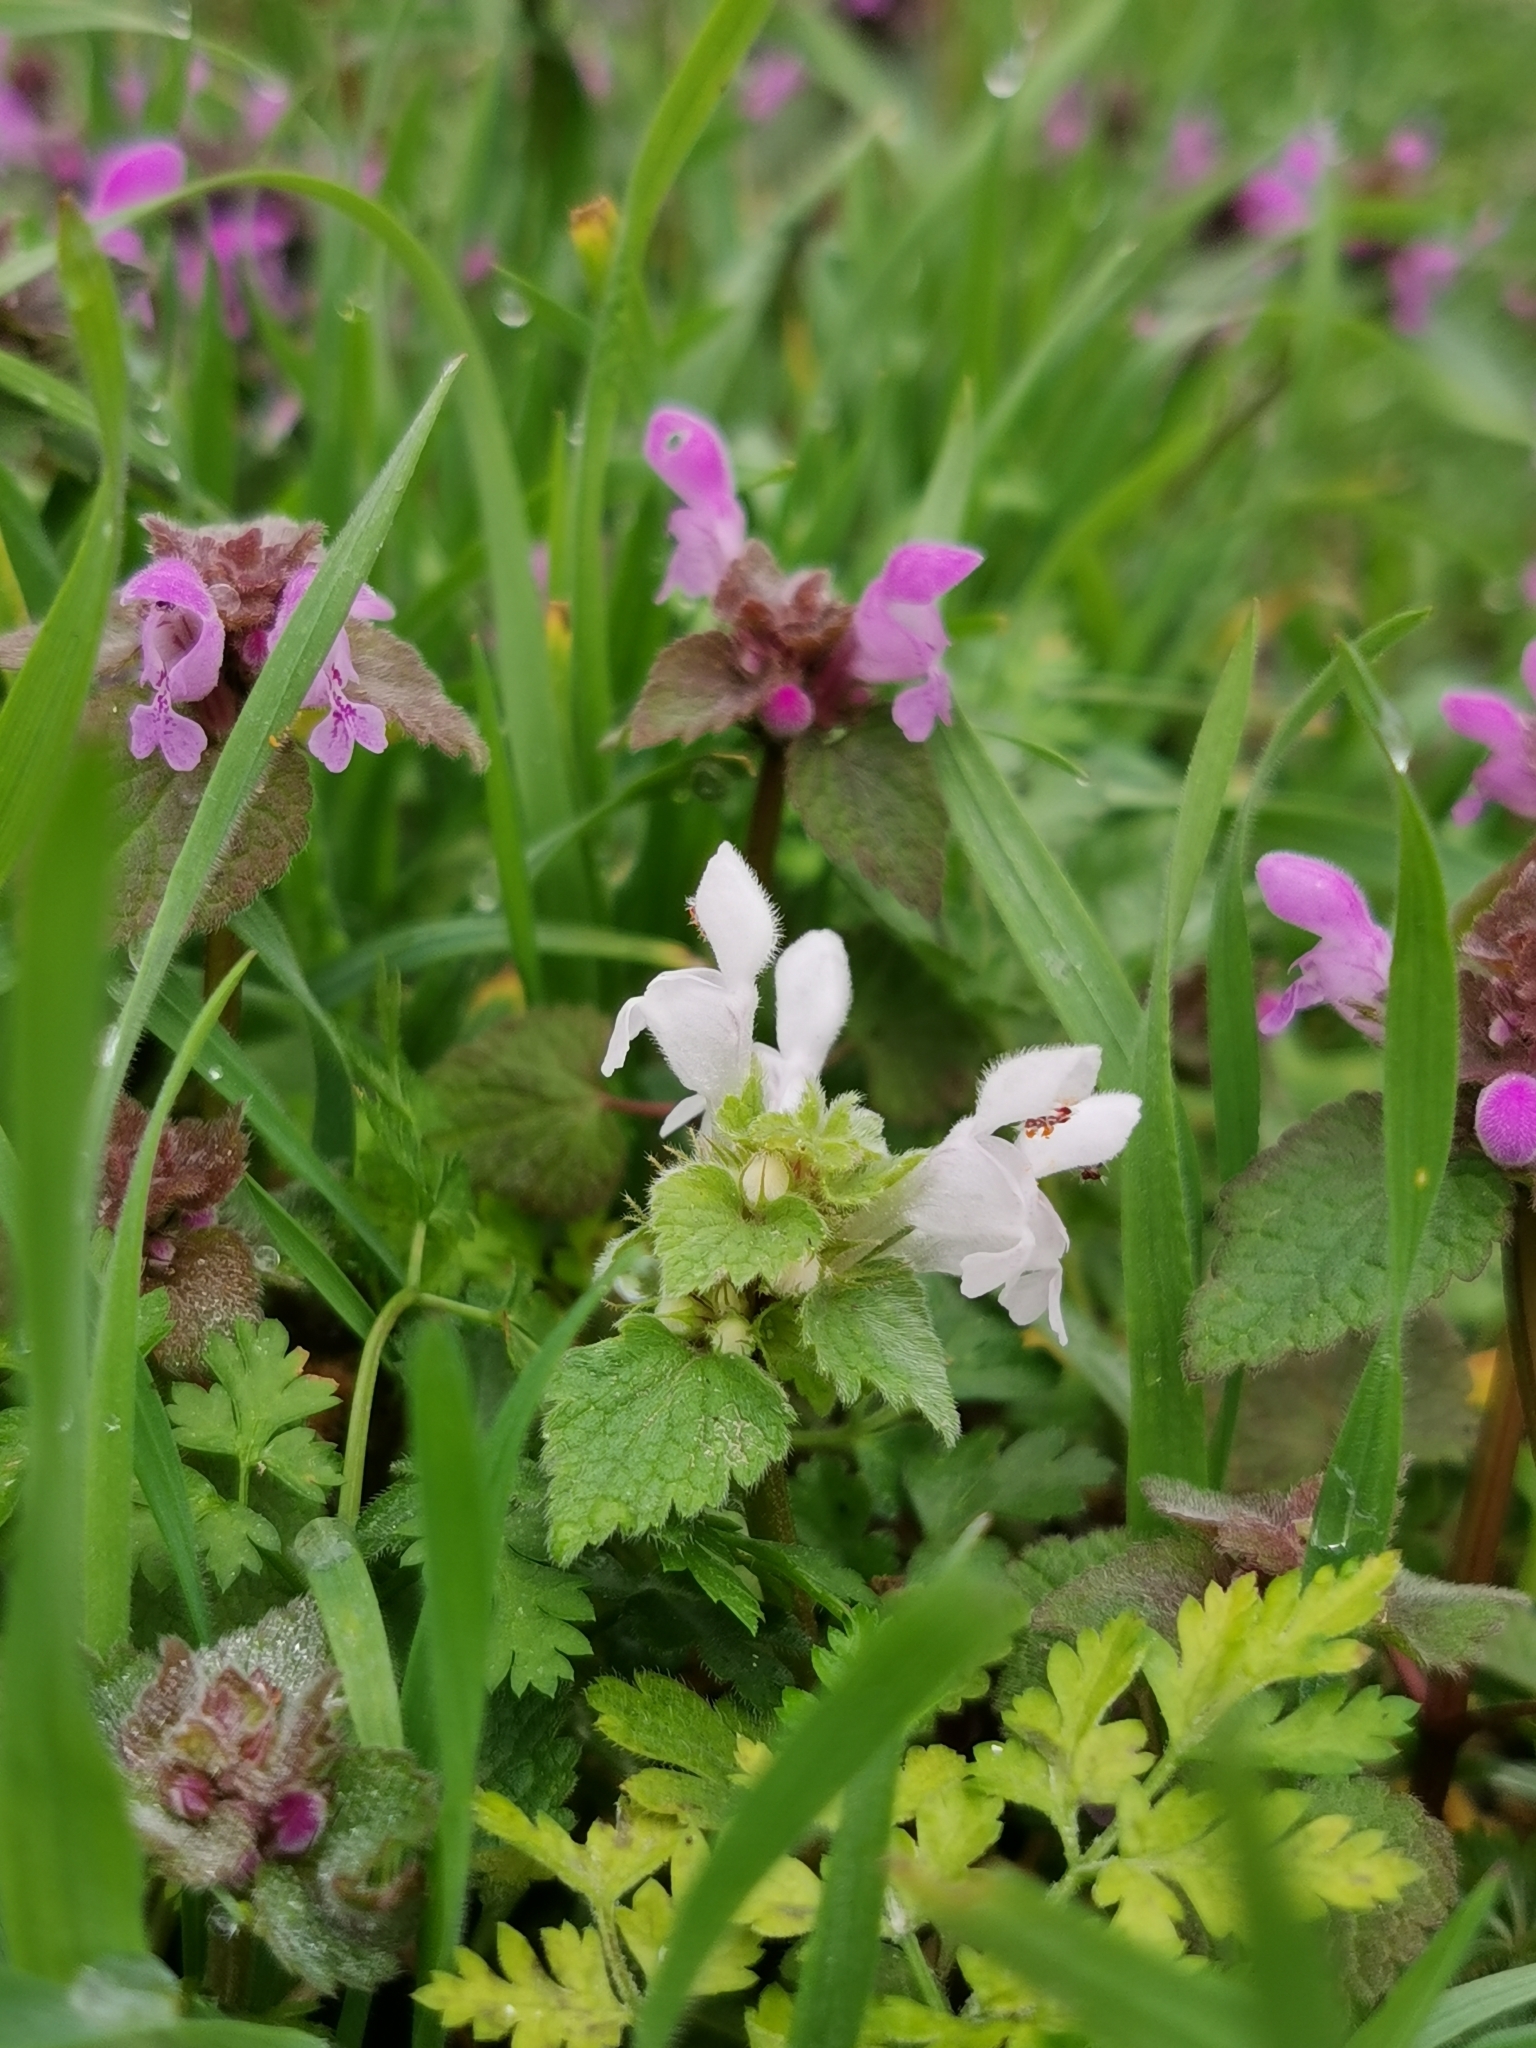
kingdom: Plantae
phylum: Tracheophyta
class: Magnoliopsida
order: Lamiales
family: Lamiaceae
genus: Lamium
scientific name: Lamium purpureum
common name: Red dead-nettle
